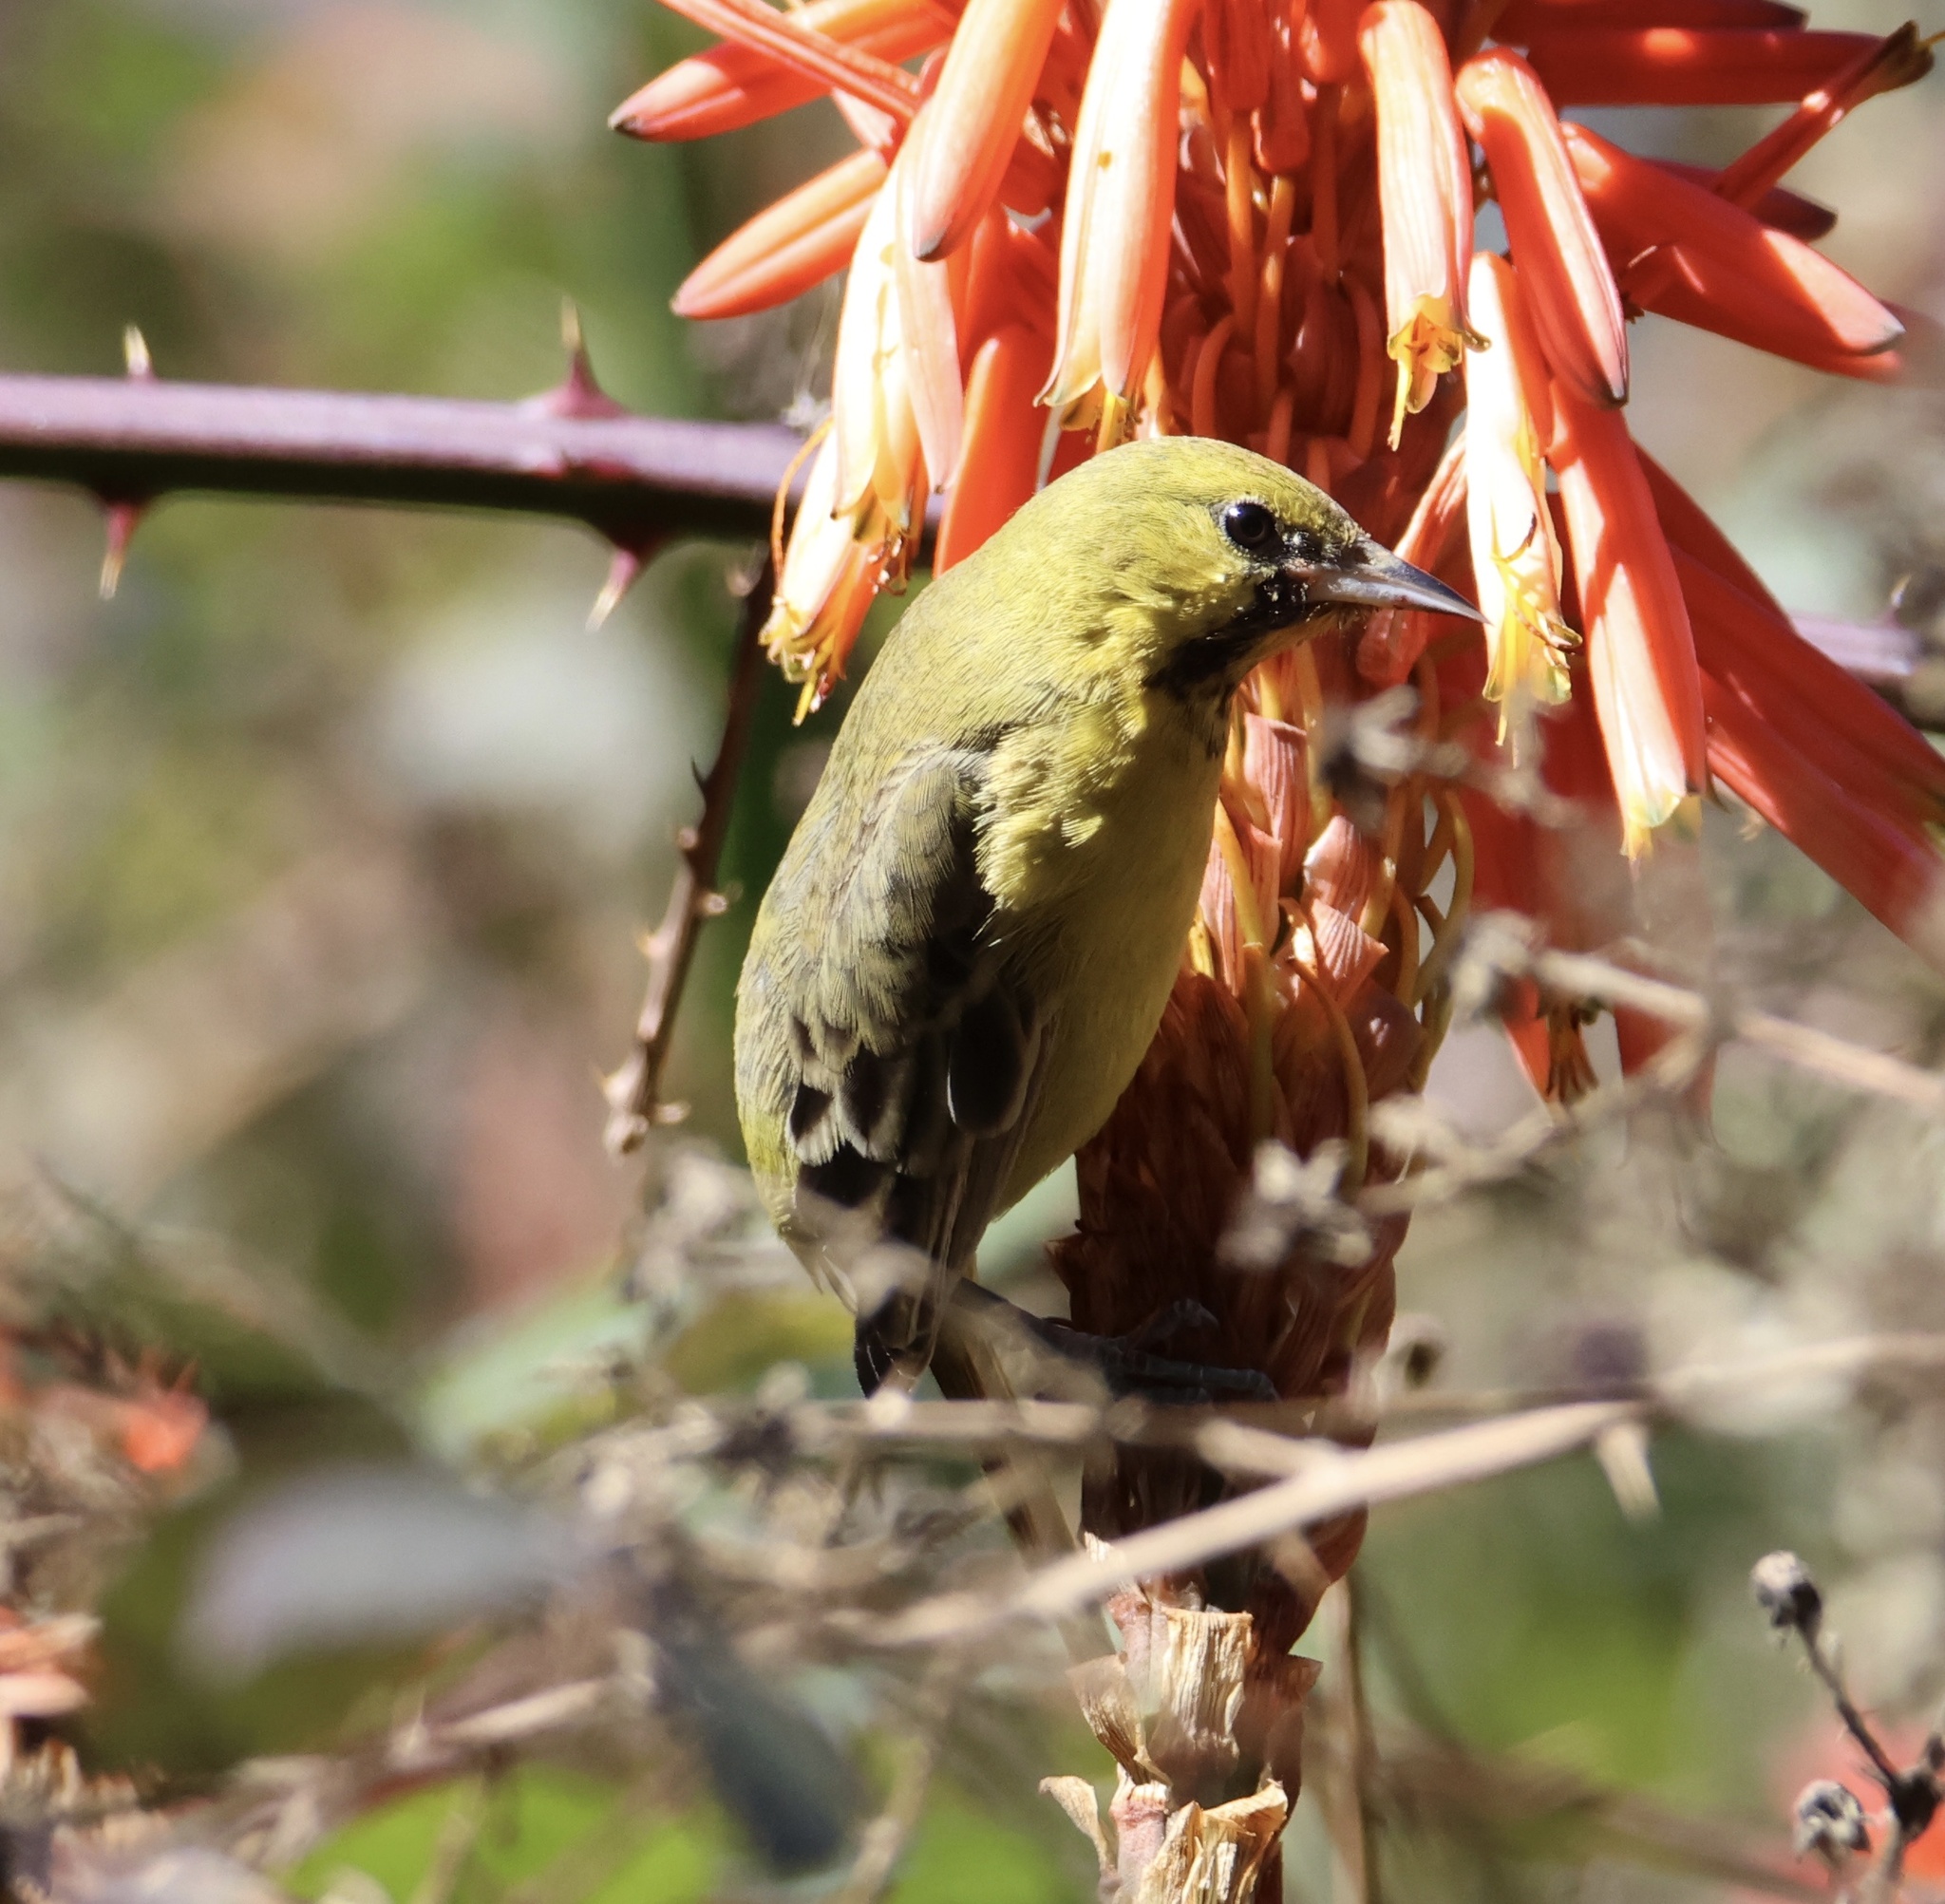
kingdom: Animalia
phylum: Chordata
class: Aves
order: Passeriformes
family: Icteridae
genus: Icterus
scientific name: Icterus spurius
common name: Orchard oriole
